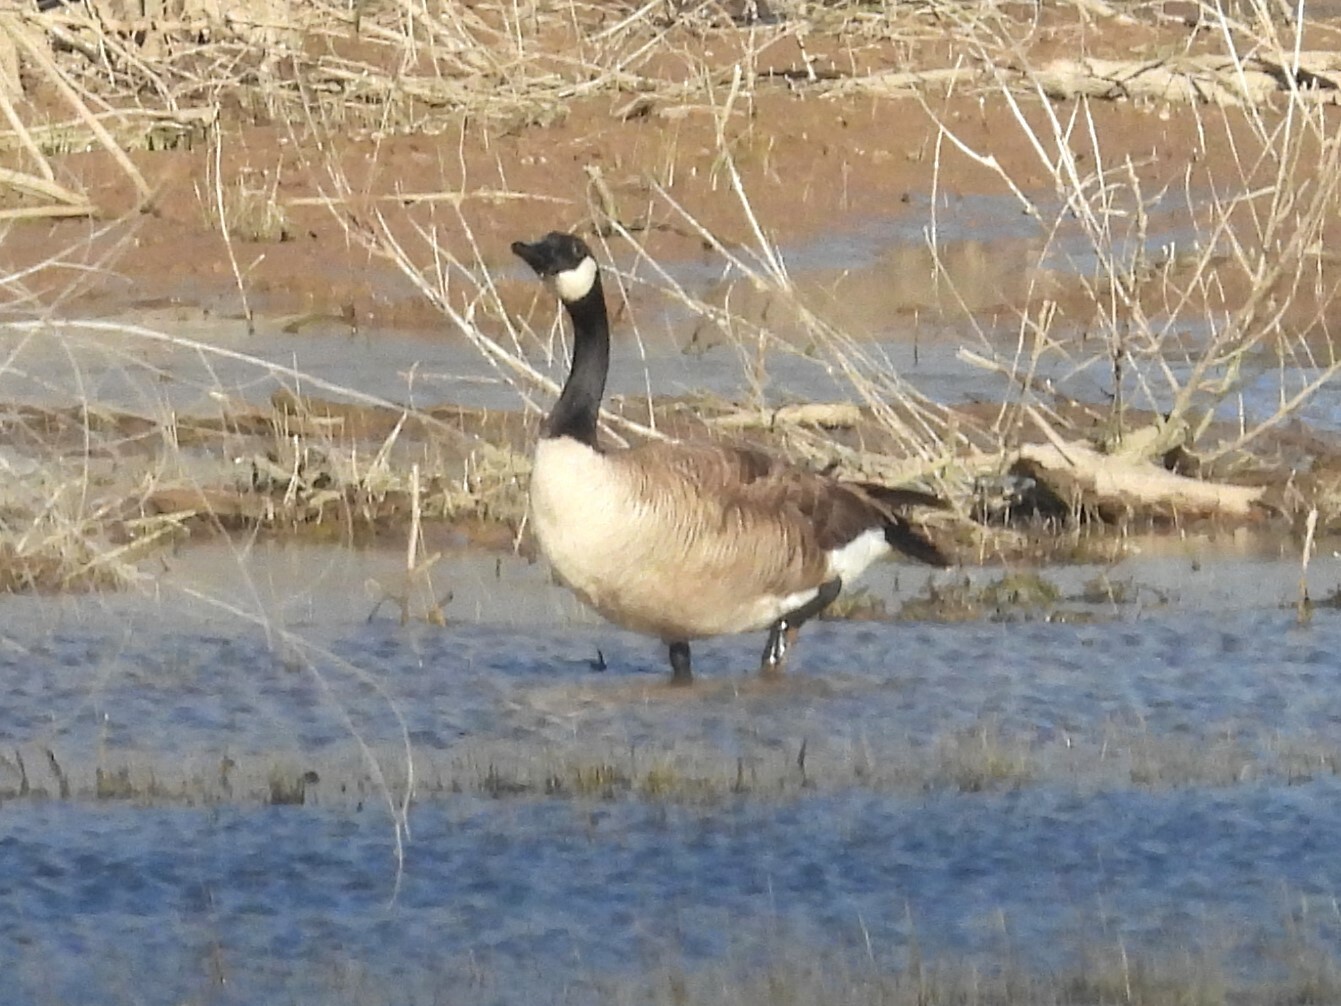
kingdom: Animalia
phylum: Chordata
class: Aves
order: Anseriformes
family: Anatidae
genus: Branta
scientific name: Branta canadensis
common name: Canada goose
